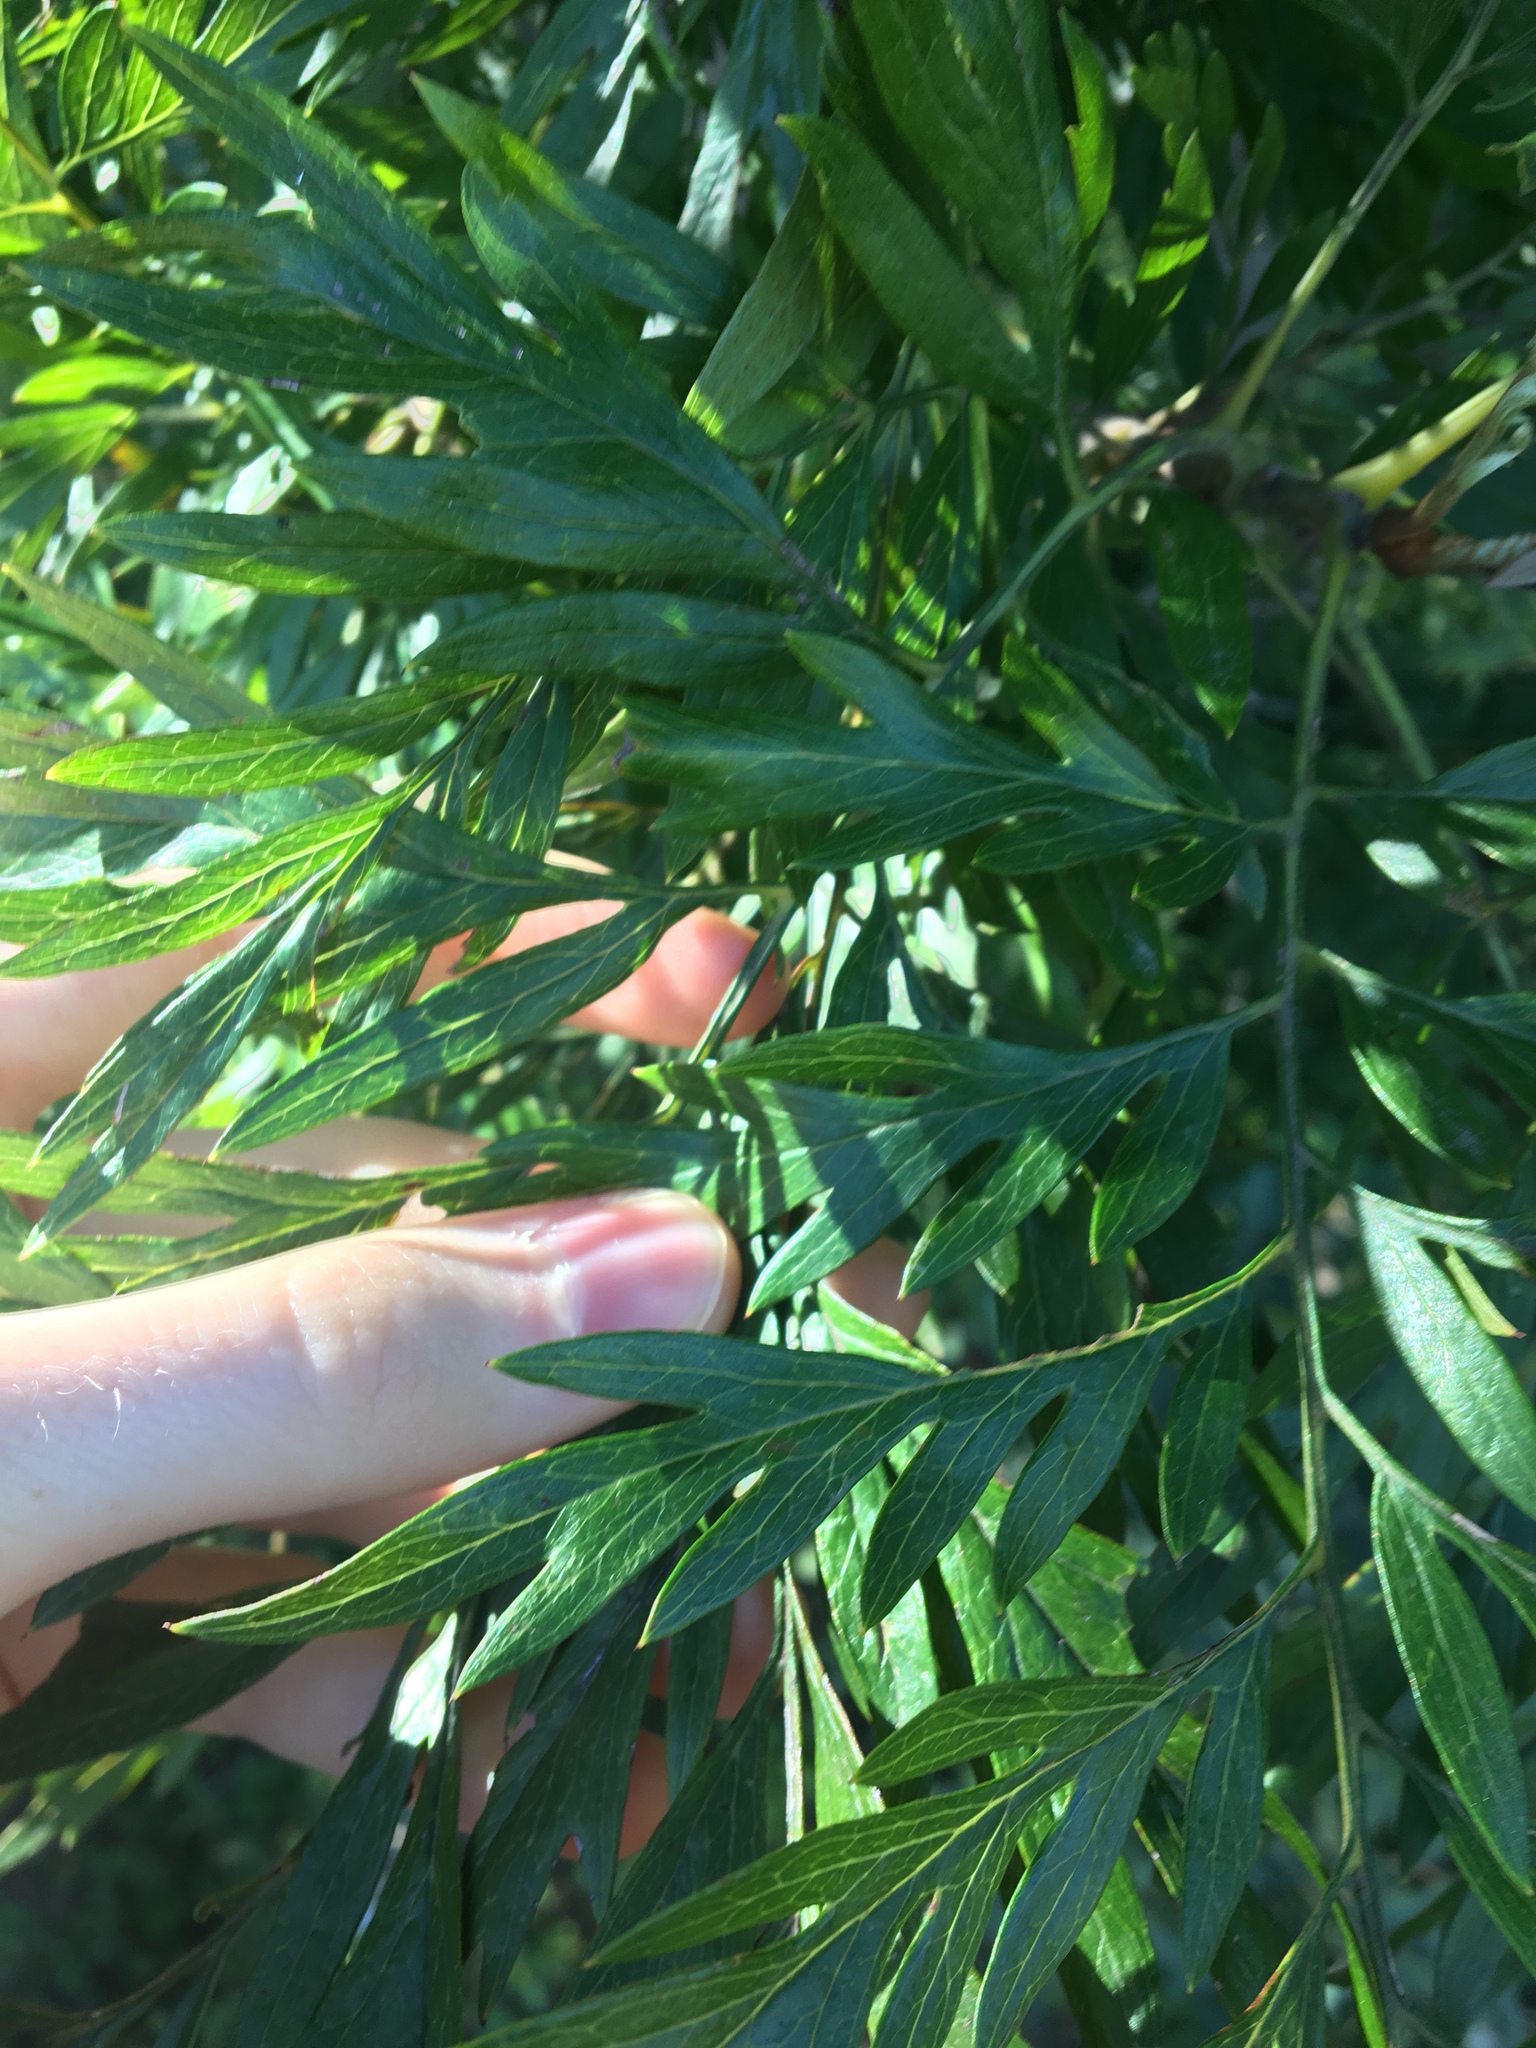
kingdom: Plantae
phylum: Tracheophyta
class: Magnoliopsida
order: Proteales
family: Proteaceae
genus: Grevillea
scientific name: Grevillea robusta
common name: Silkoak
